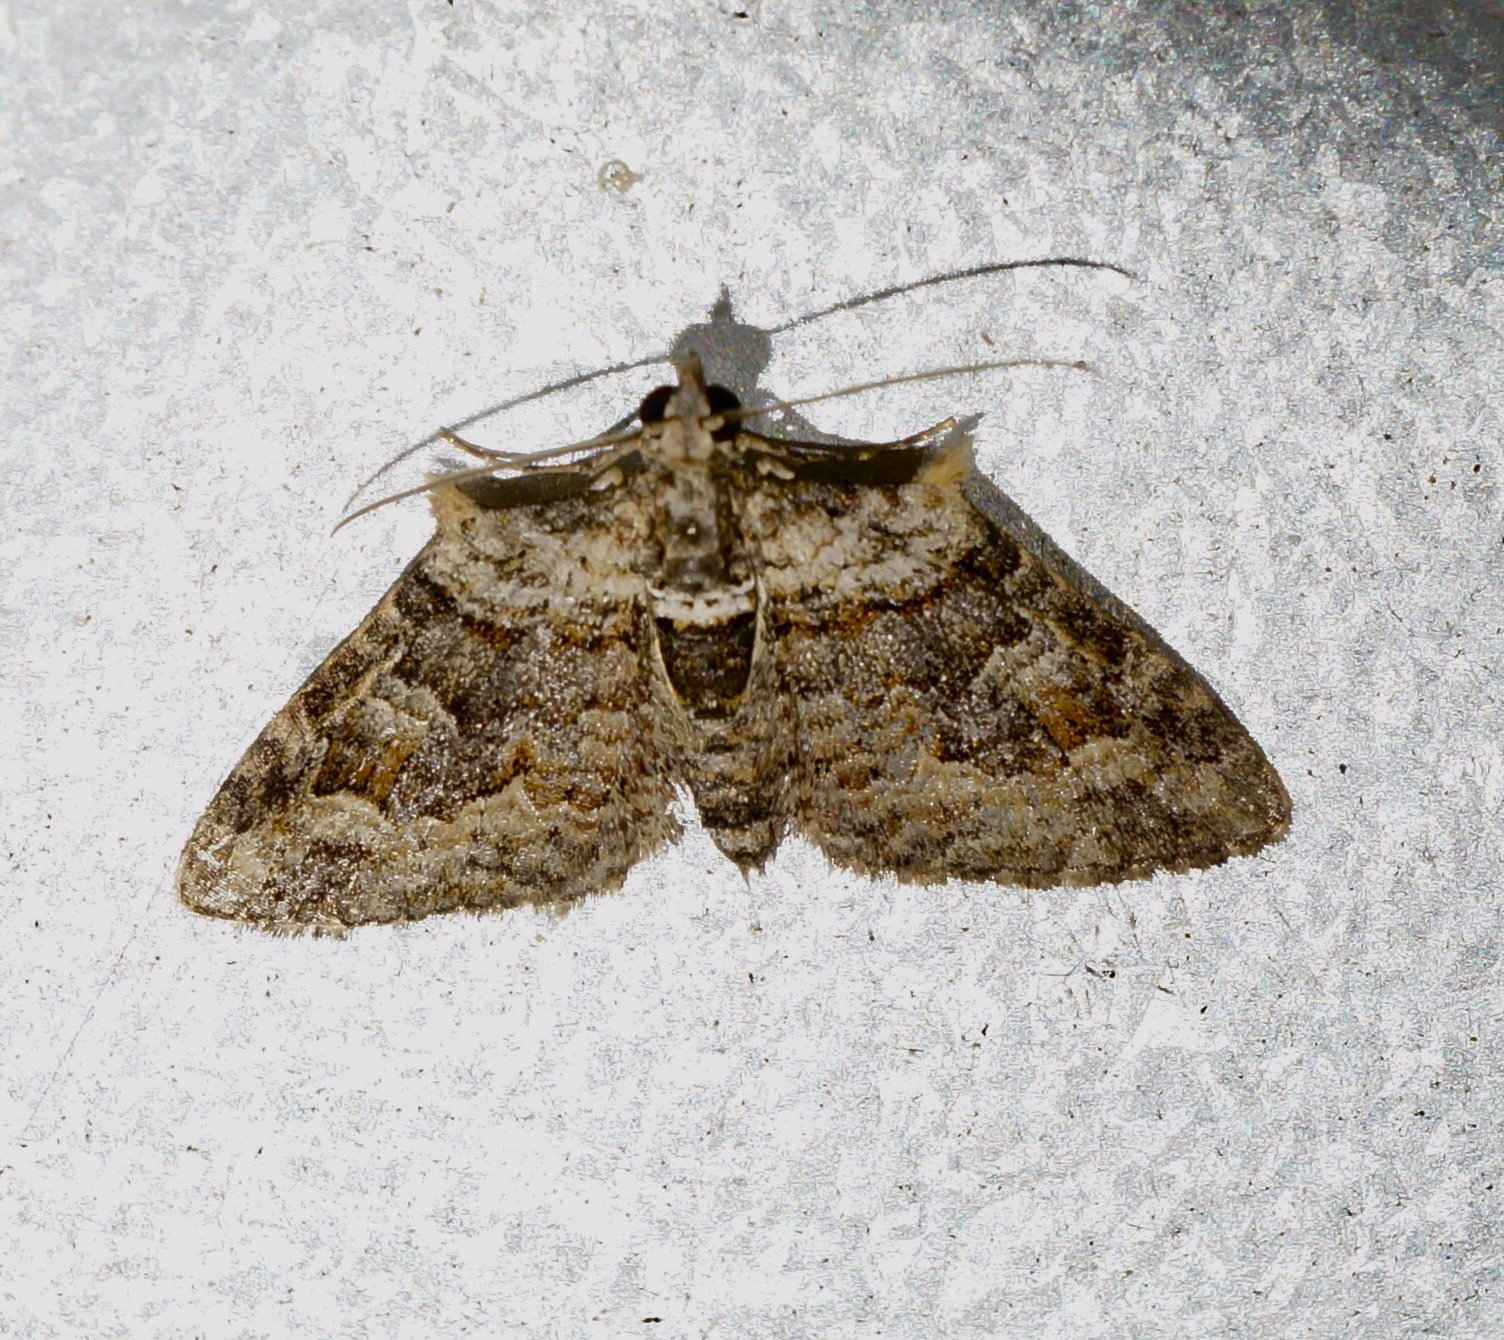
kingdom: Animalia
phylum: Arthropoda
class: Insecta
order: Lepidoptera
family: Geometridae
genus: Phrissogonus
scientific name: Phrissogonus laticostata
